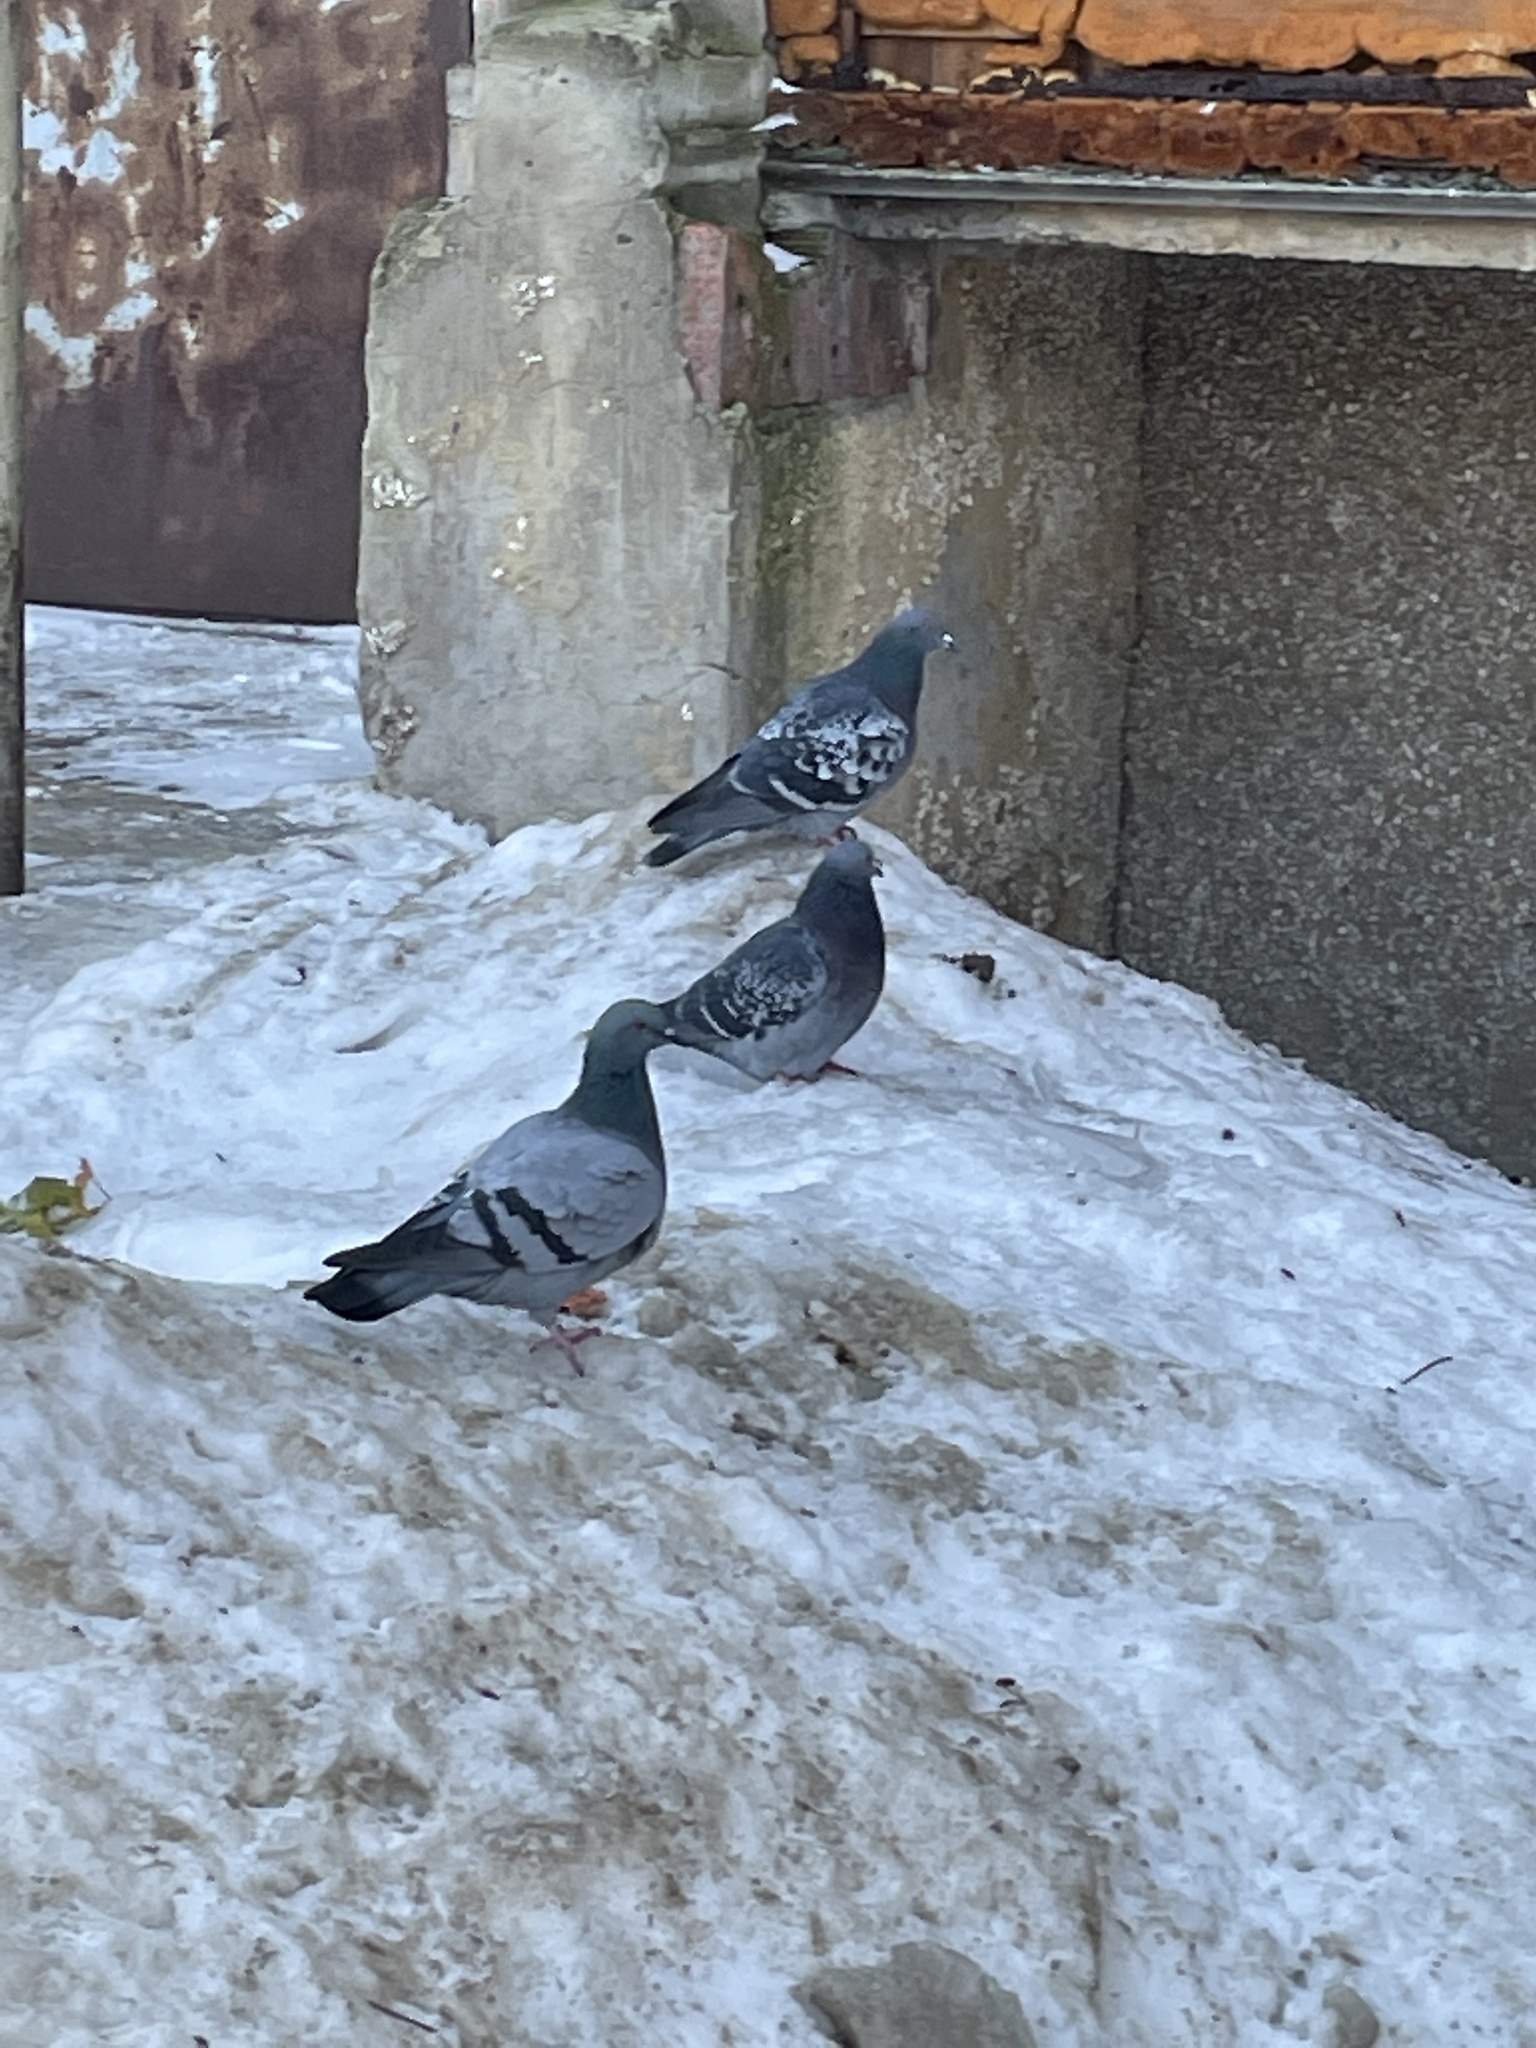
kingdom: Animalia
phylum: Chordata
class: Aves
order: Columbiformes
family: Columbidae
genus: Columba
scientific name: Columba livia
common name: Rock pigeon
